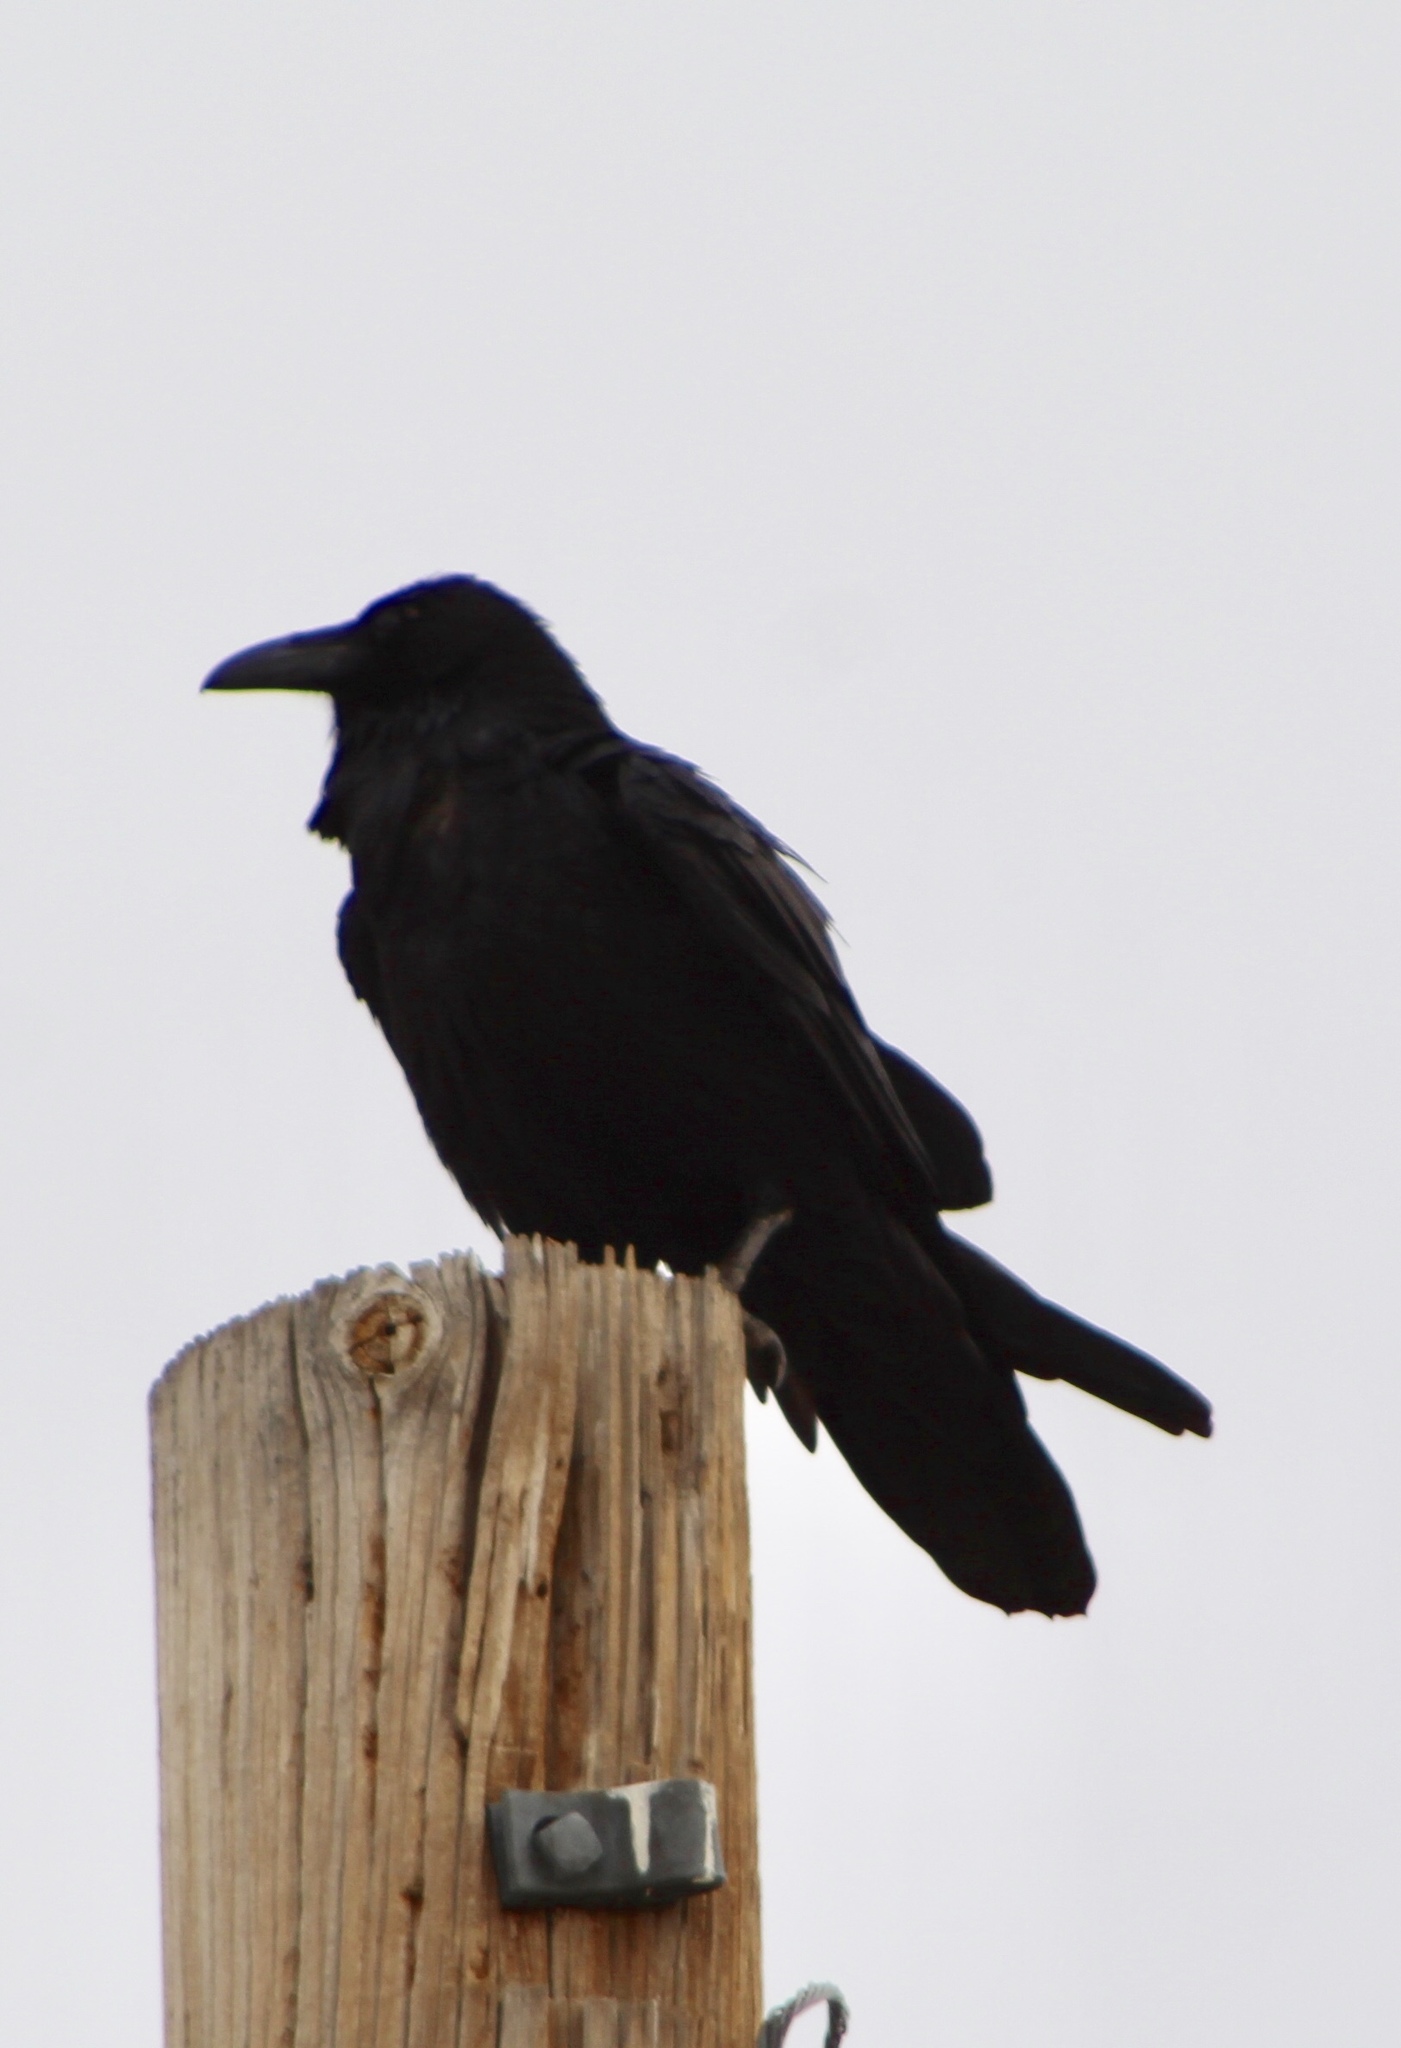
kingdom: Animalia
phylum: Chordata
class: Aves
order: Passeriformes
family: Corvidae
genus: Corvus
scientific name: Corvus corax
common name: Common raven
